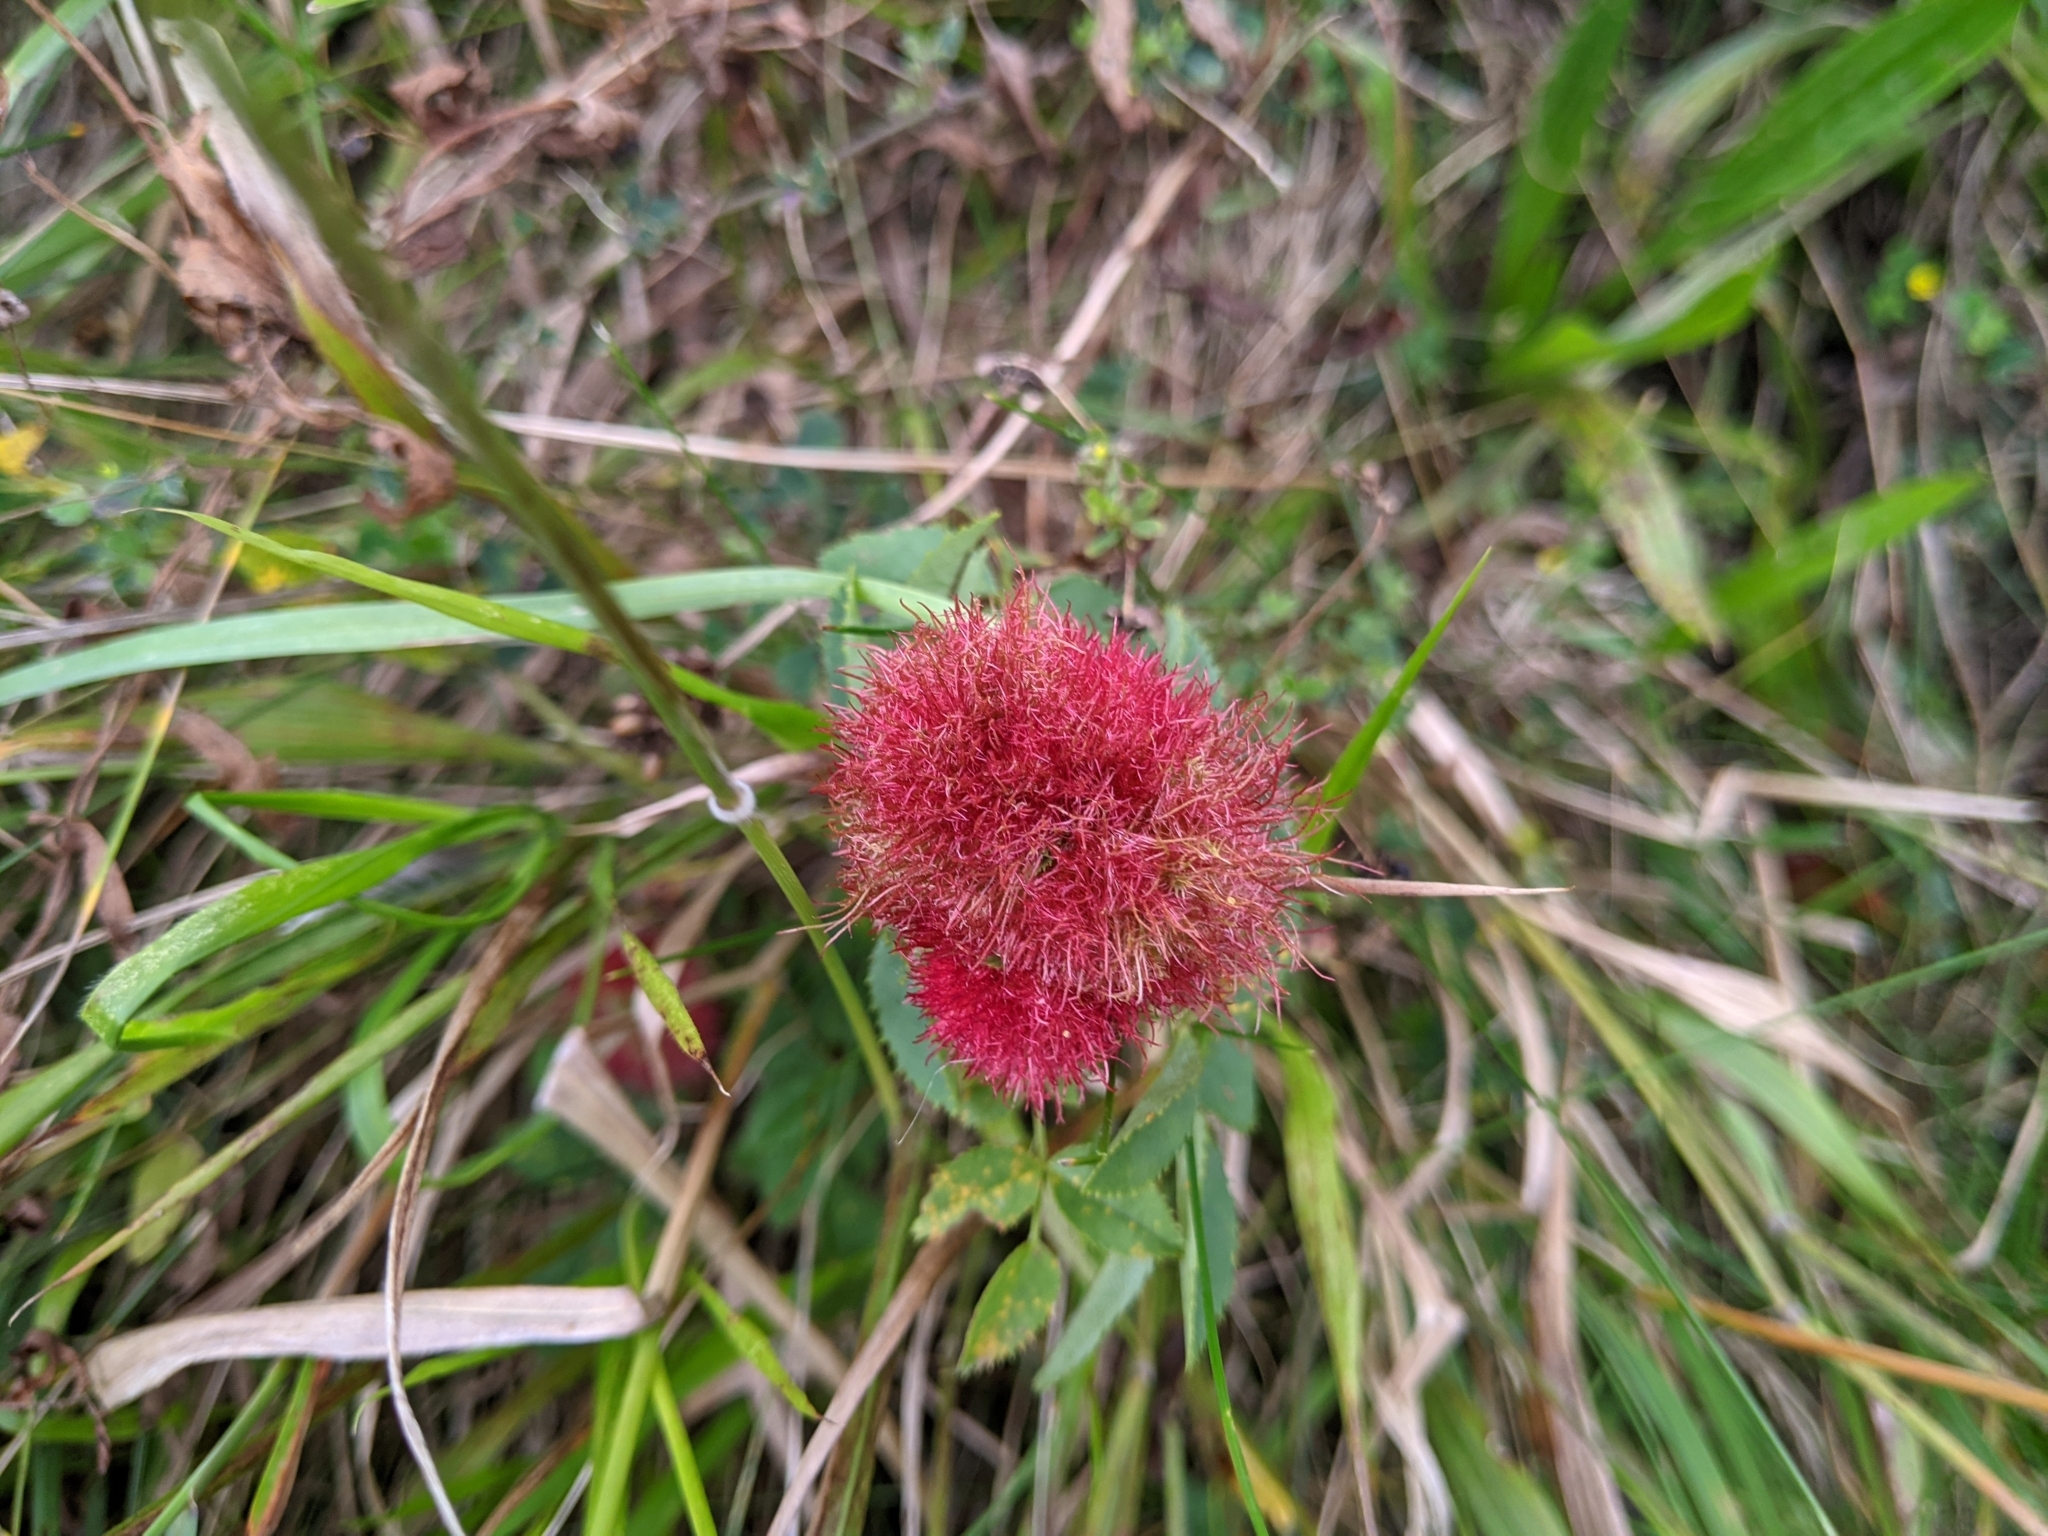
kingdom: Animalia
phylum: Arthropoda
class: Insecta
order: Hymenoptera
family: Cynipidae
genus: Diplolepis
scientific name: Diplolepis rosae
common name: Bedeguar gall
